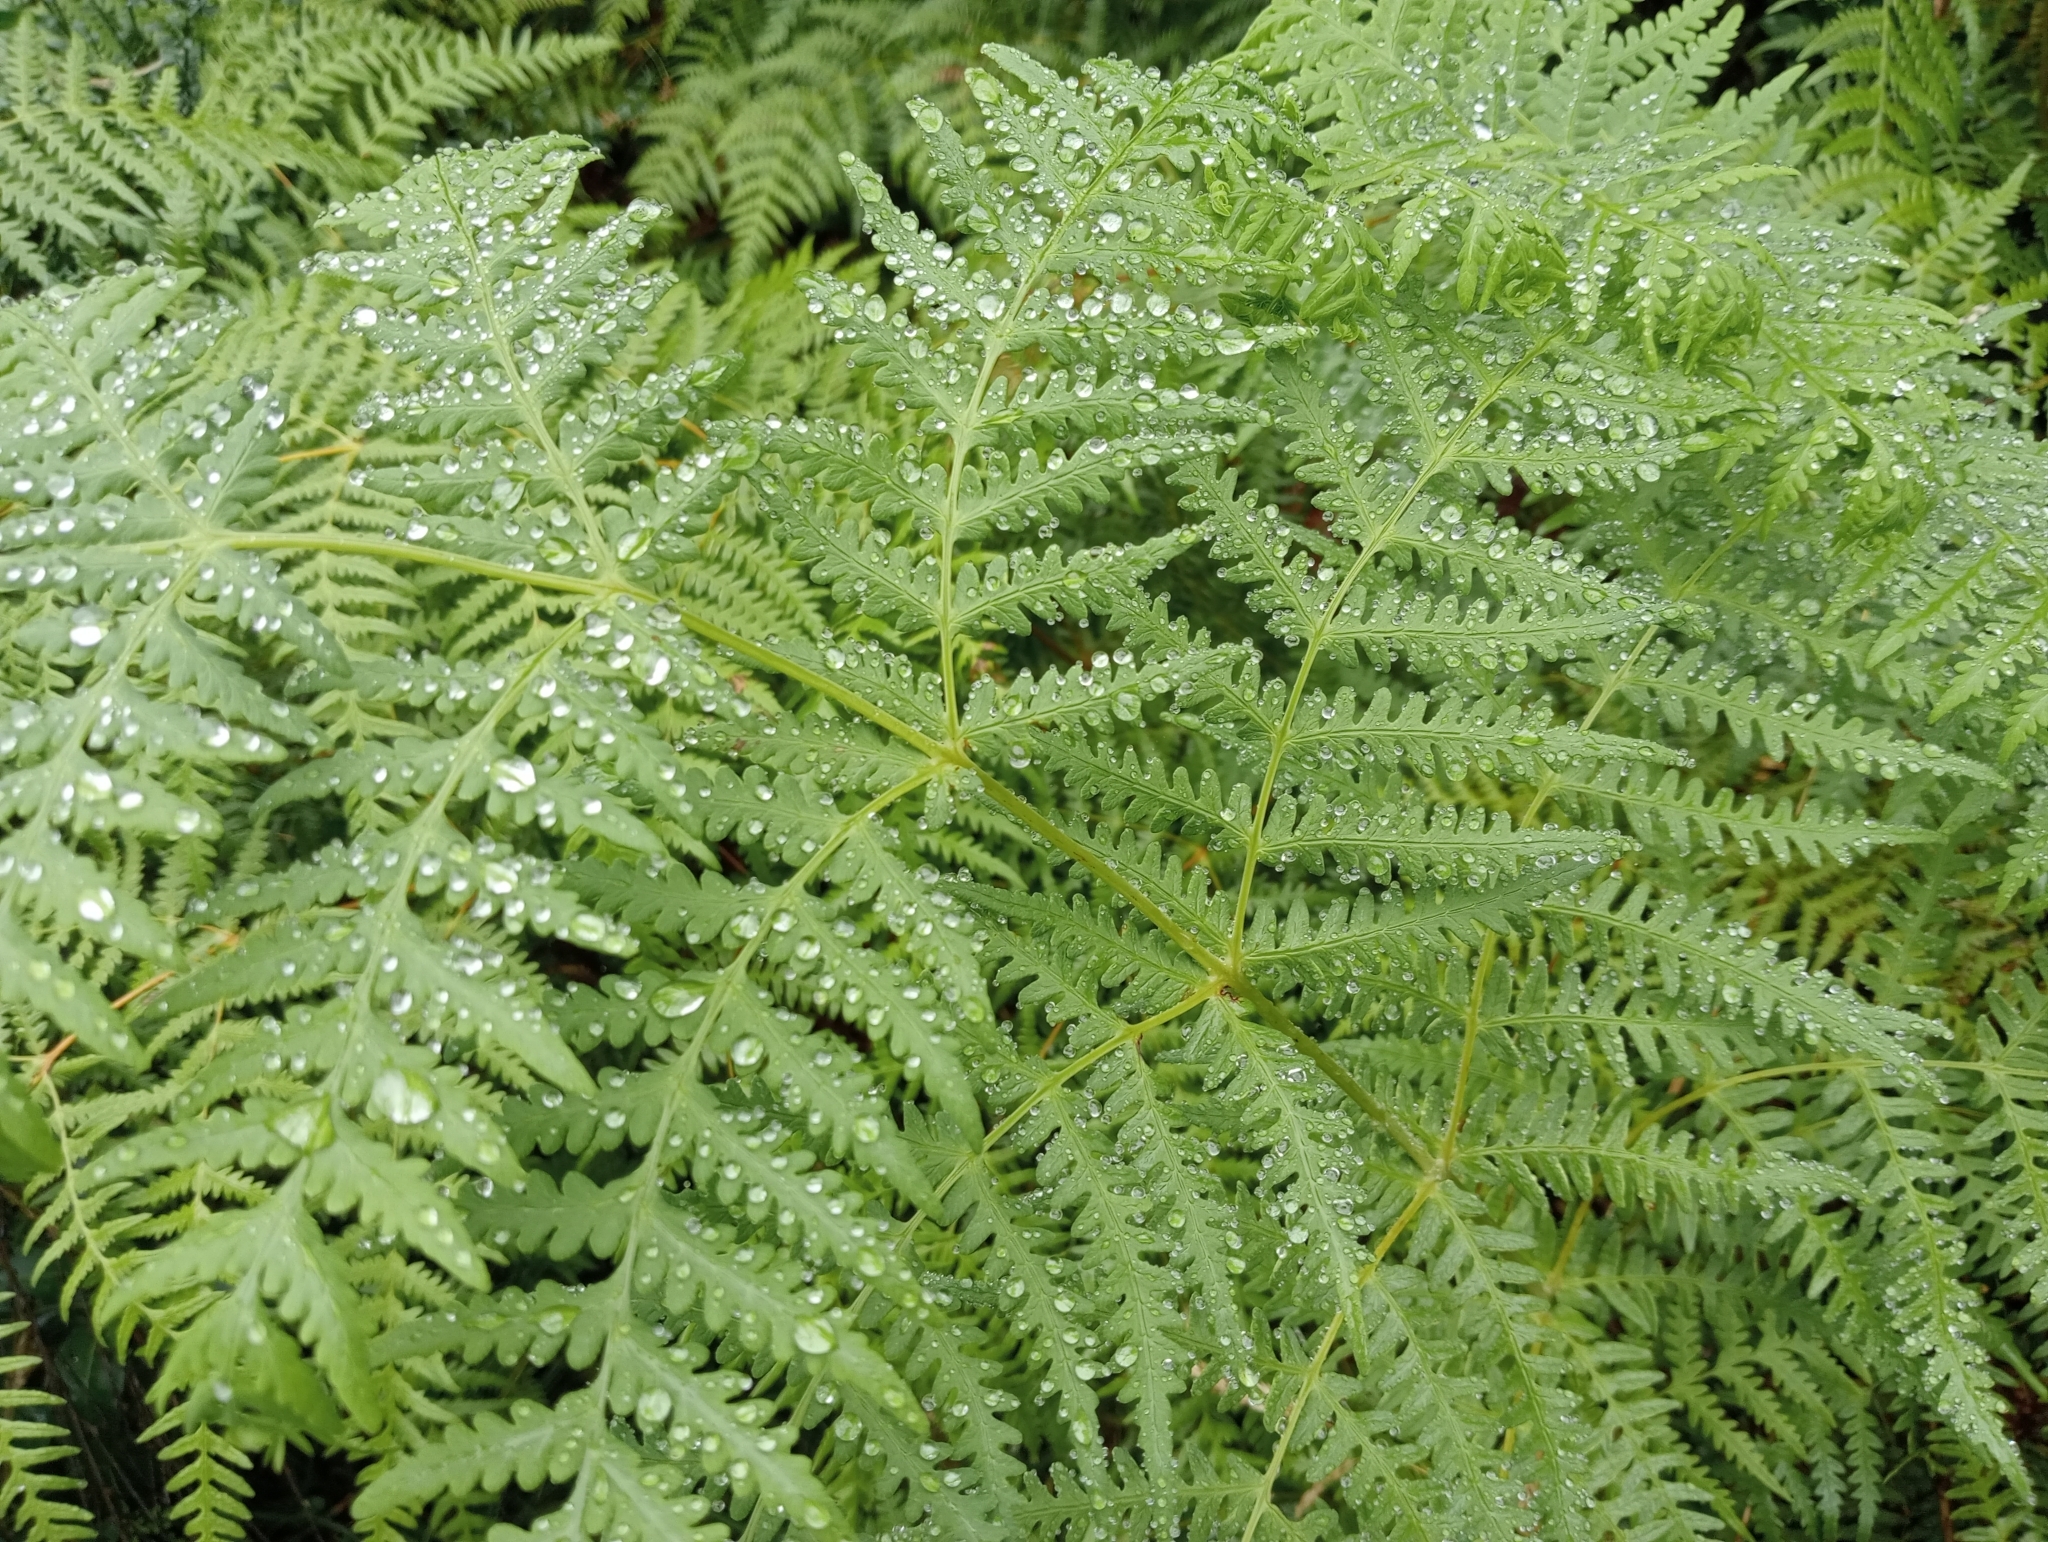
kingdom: Plantae
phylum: Tracheophyta
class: Polypodiopsida
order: Polypodiales
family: Dennstaedtiaceae
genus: Histiopteris
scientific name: Histiopteris incisa
